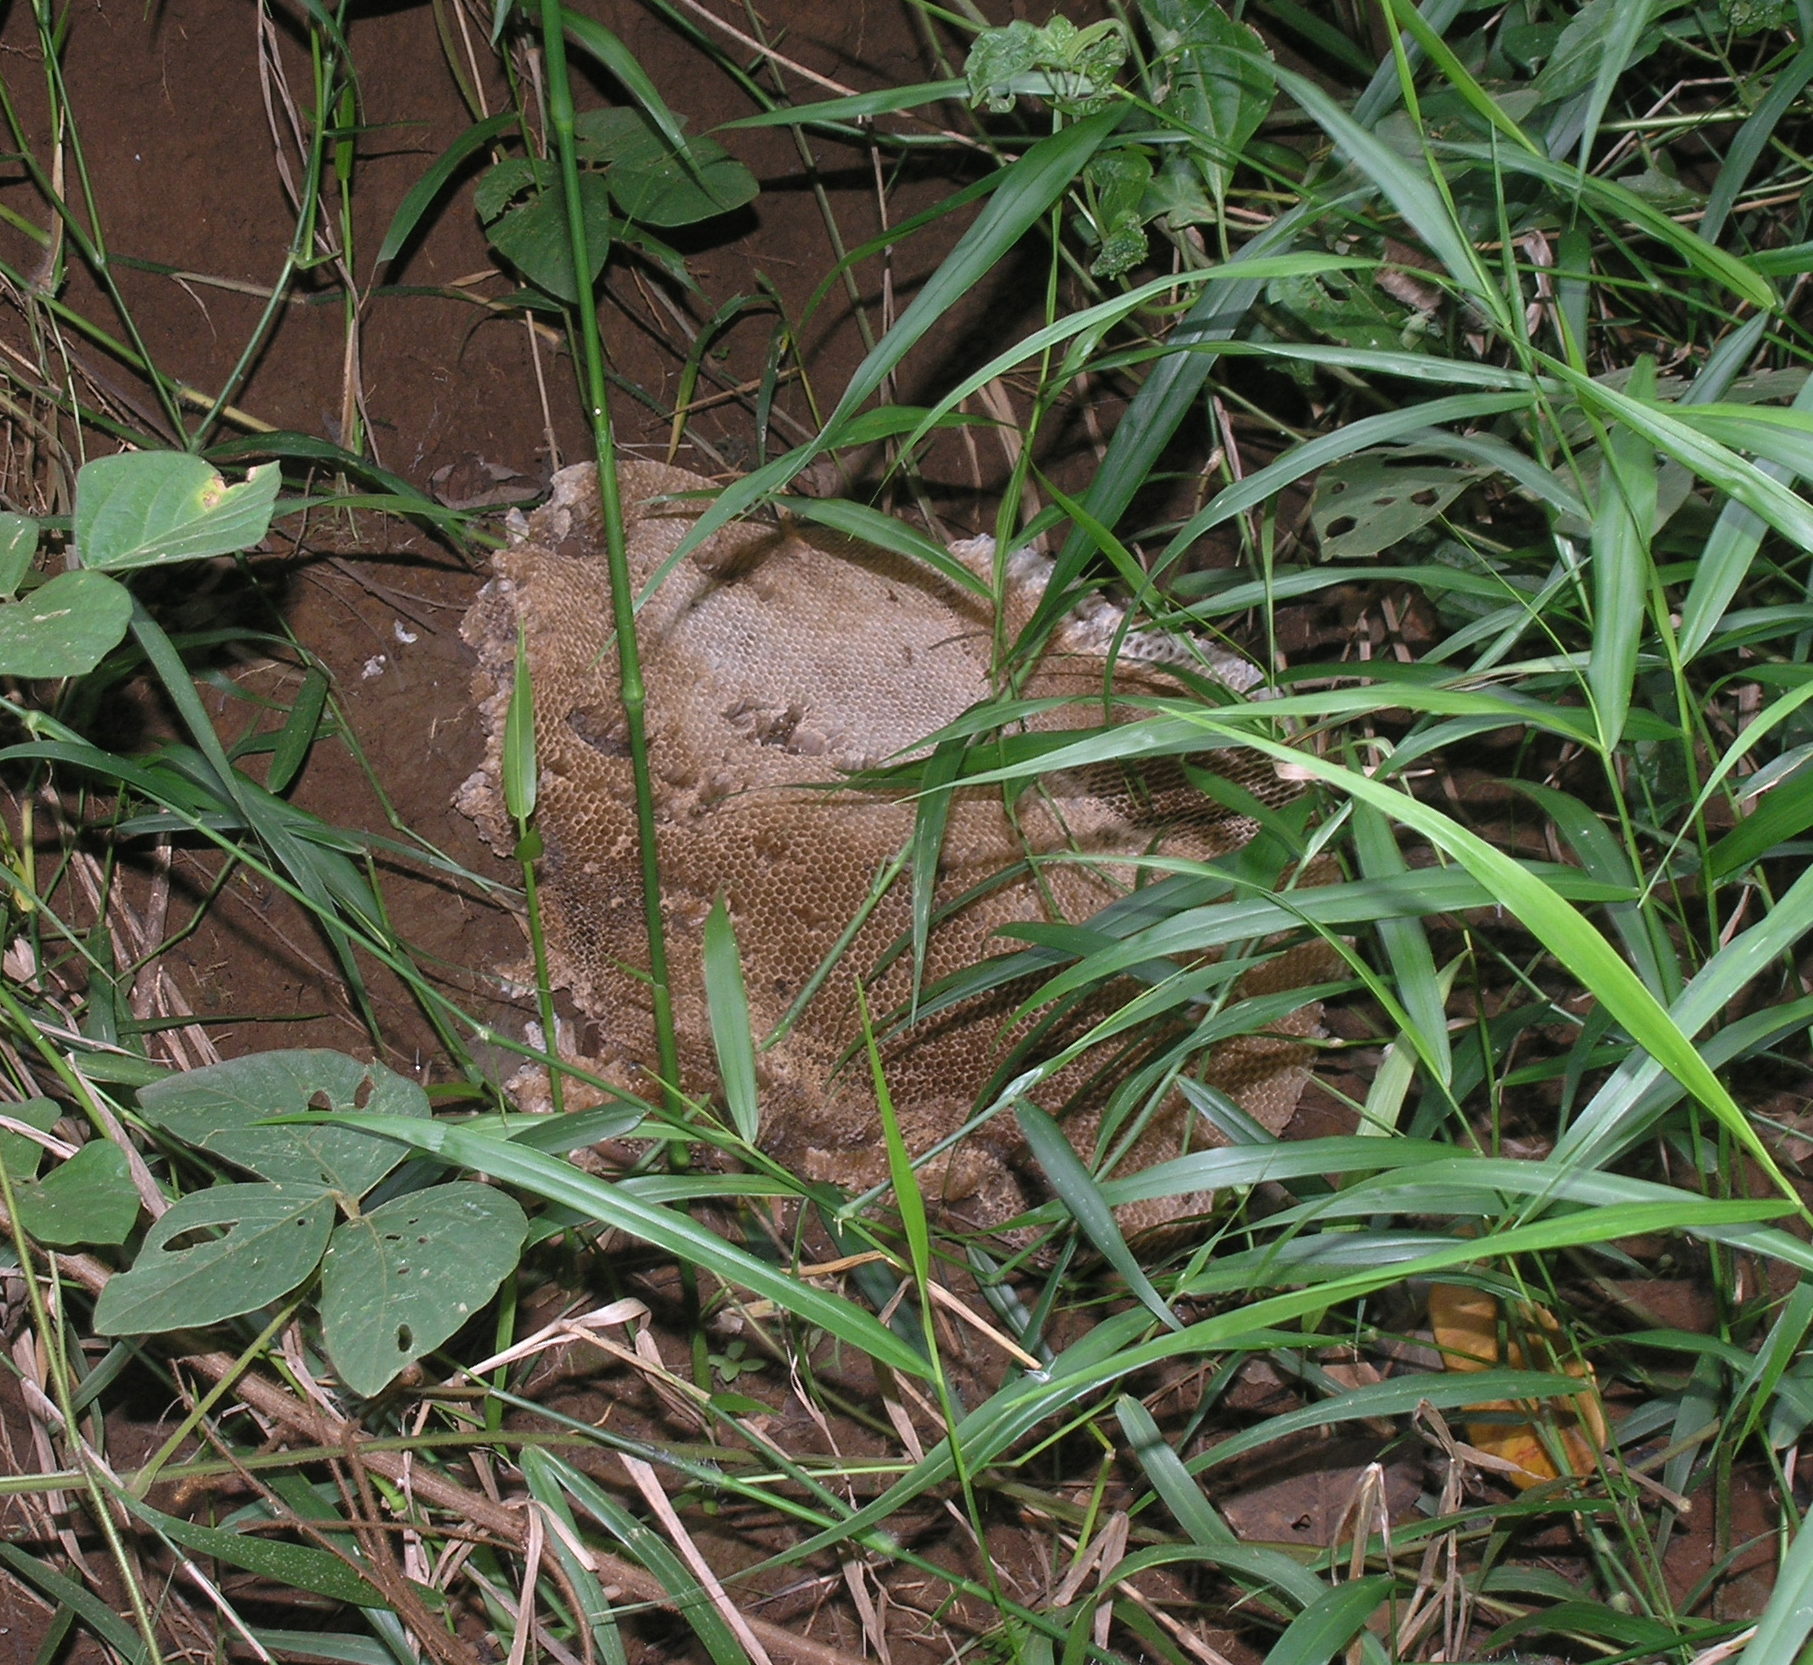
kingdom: Animalia
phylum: Arthropoda
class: Insecta
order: Hymenoptera
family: Apidae
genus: Apis
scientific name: Apis
